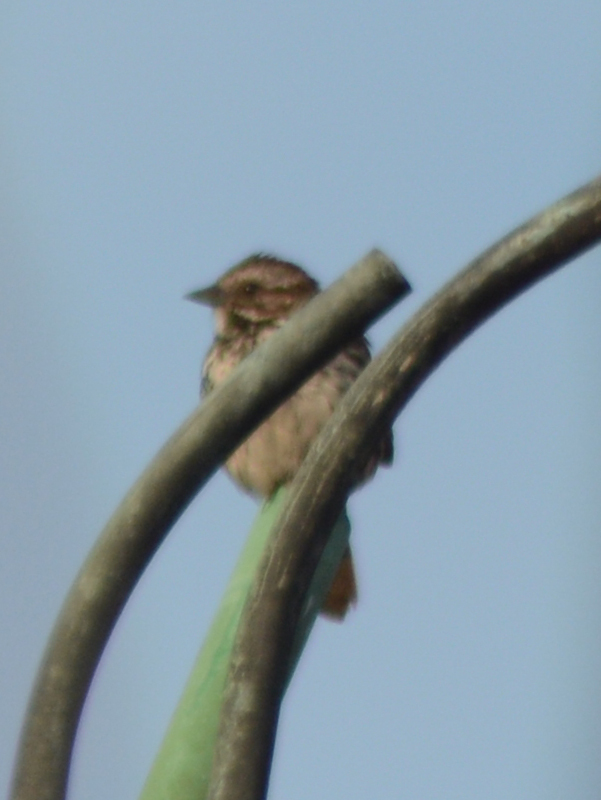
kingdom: Animalia
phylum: Chordata
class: Aves
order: Passeriformes
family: Passerellidae
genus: Melospiza
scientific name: Melospiza melodia
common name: Song sparrow
